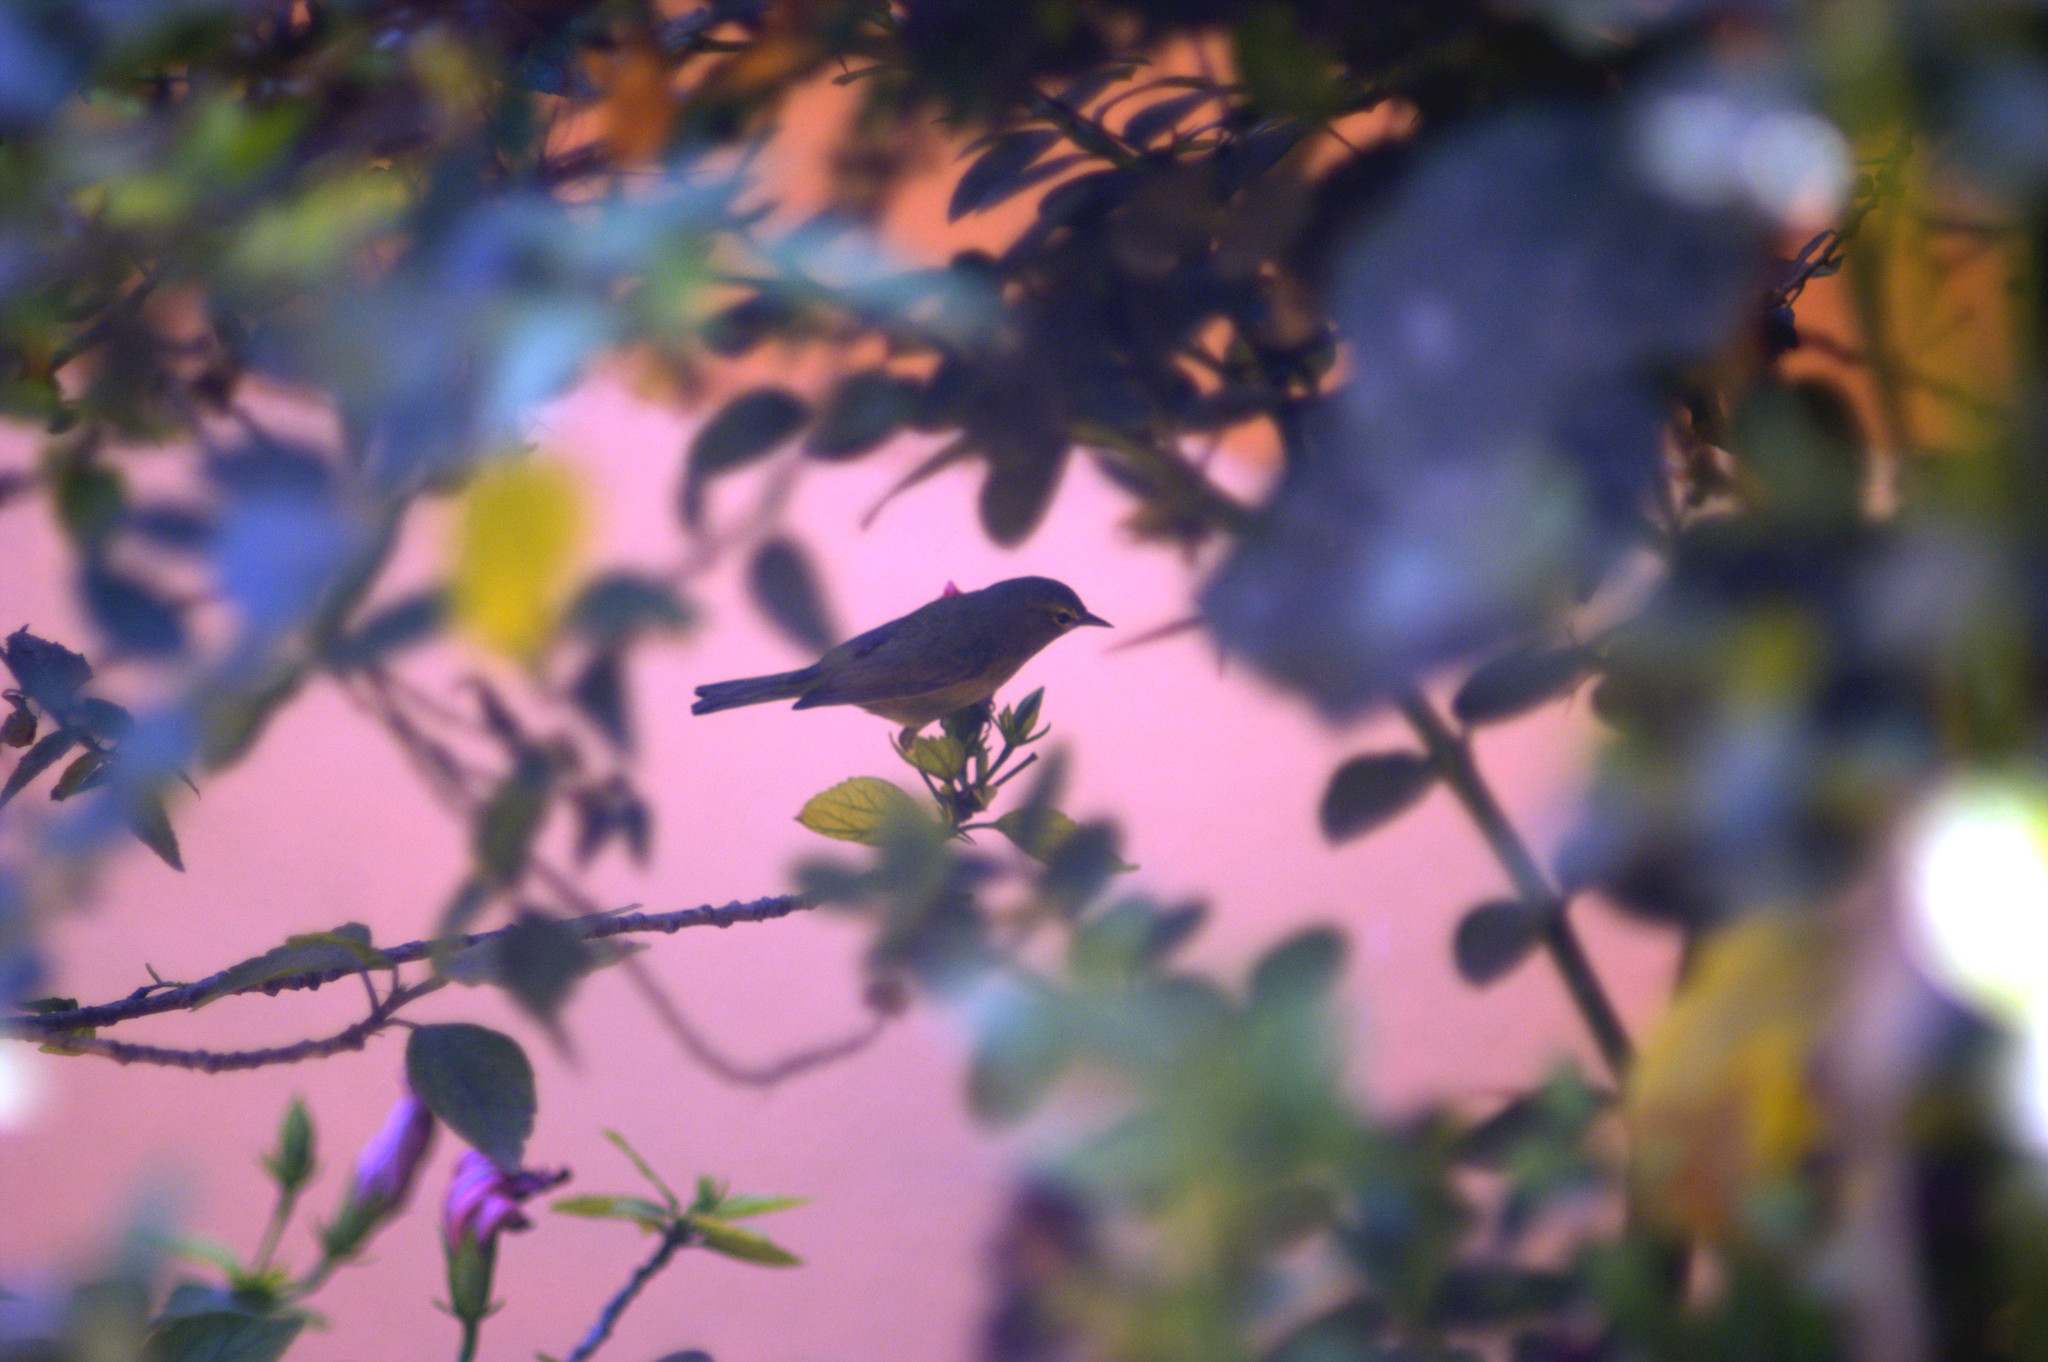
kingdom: Animalia
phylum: Chordata
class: Aves
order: Passeriformes
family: Parulidae
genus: Leiothlypis
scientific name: Leiothlypis celata
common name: Orange-crowned warbler
